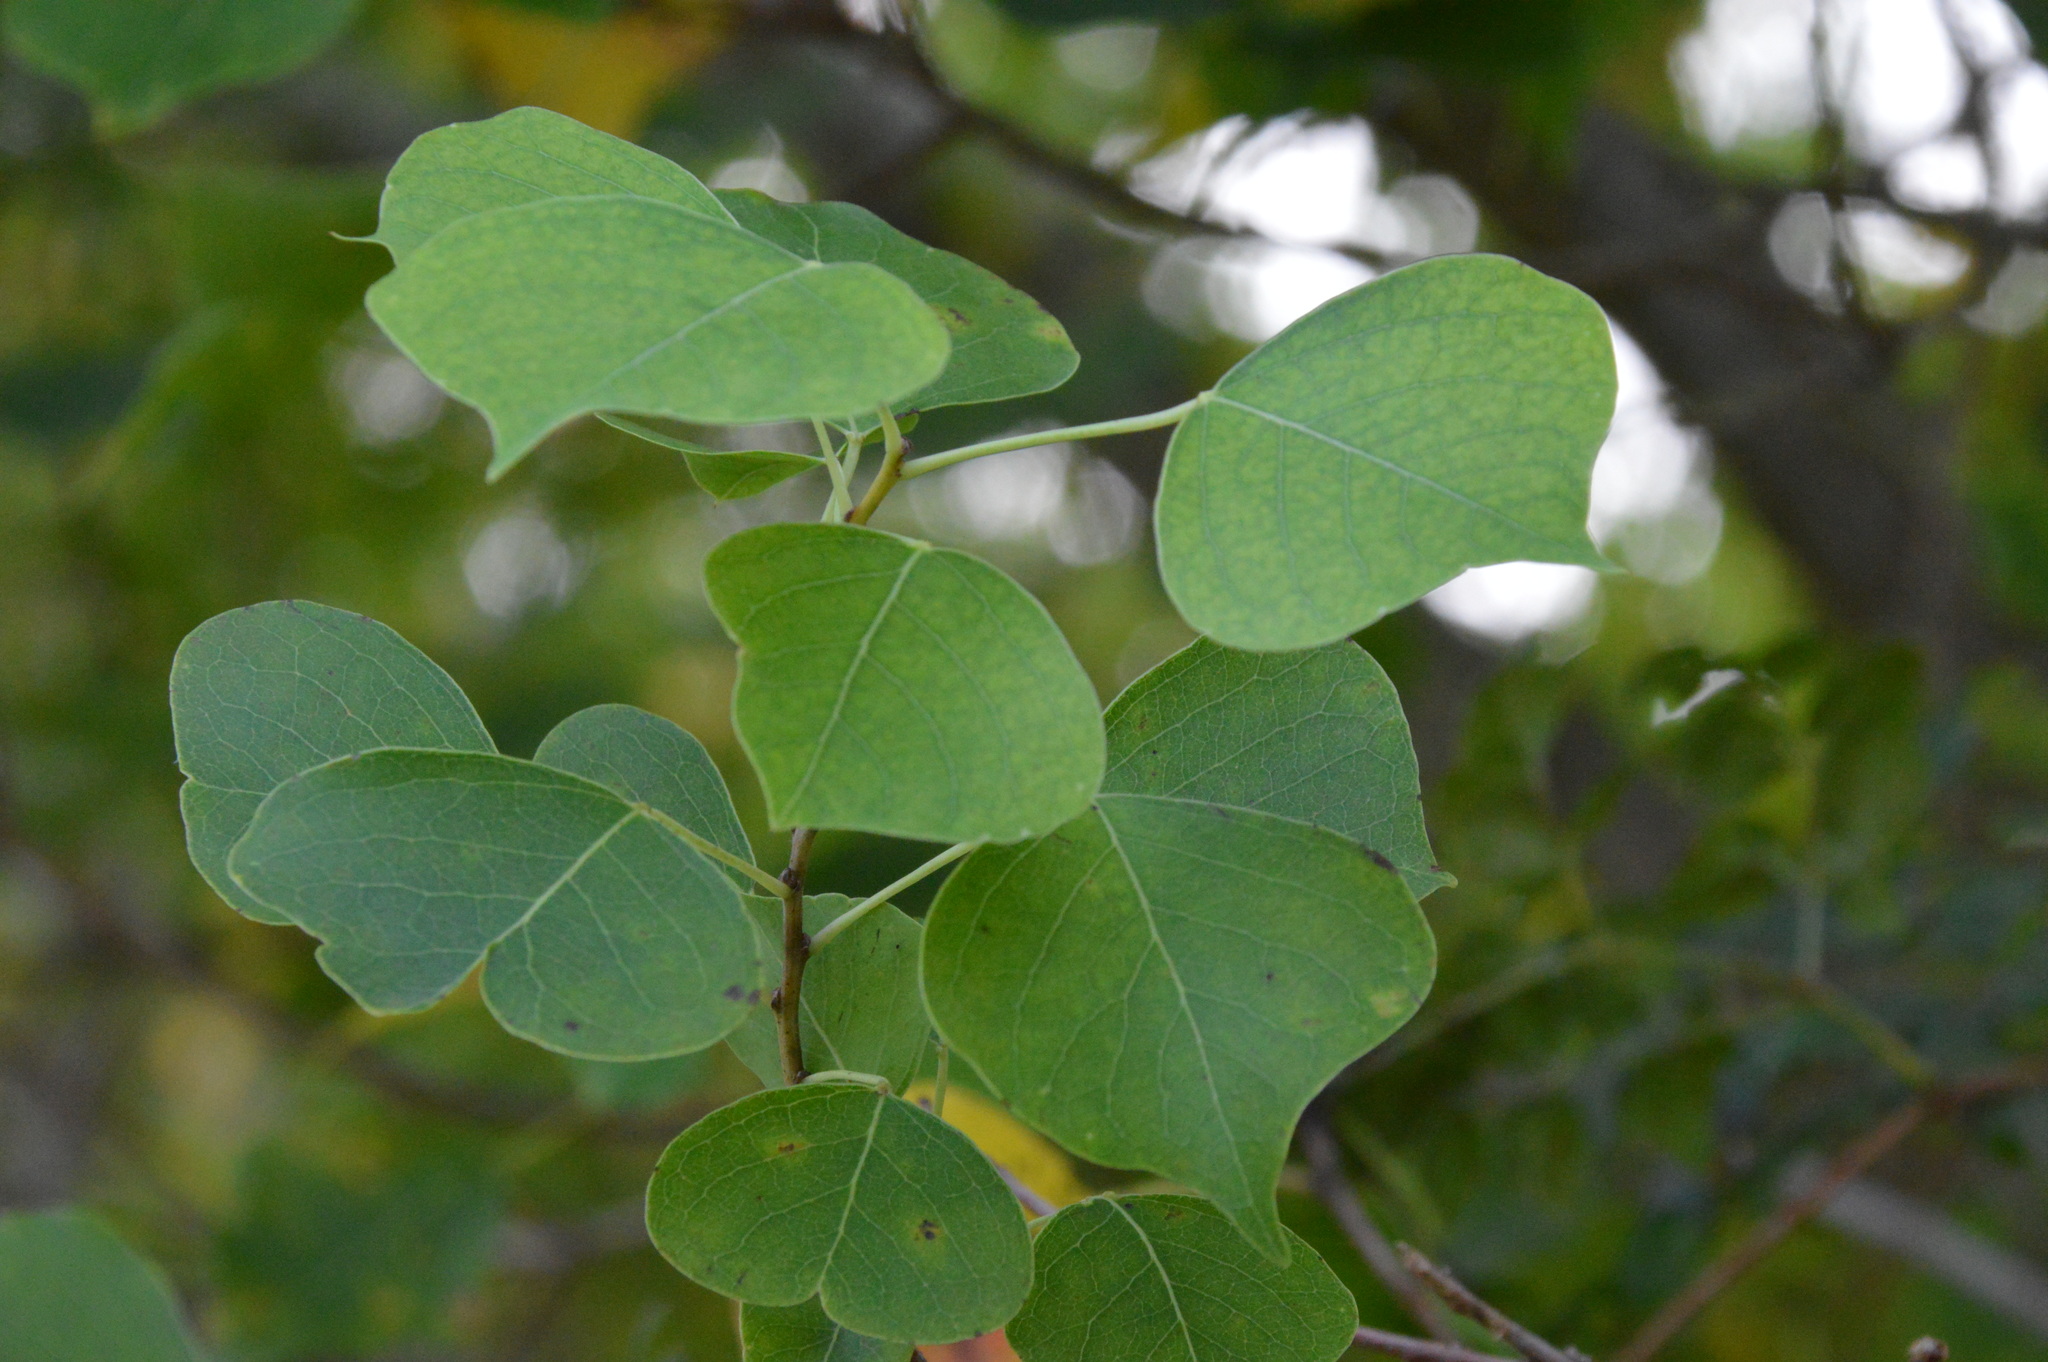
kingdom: Plantae
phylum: Tracheophyta
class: Magnoliopsida
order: Malpighiales
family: Euphorbiaceae
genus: Triadica
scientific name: Triadica sebifera
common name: Chinese tallow
